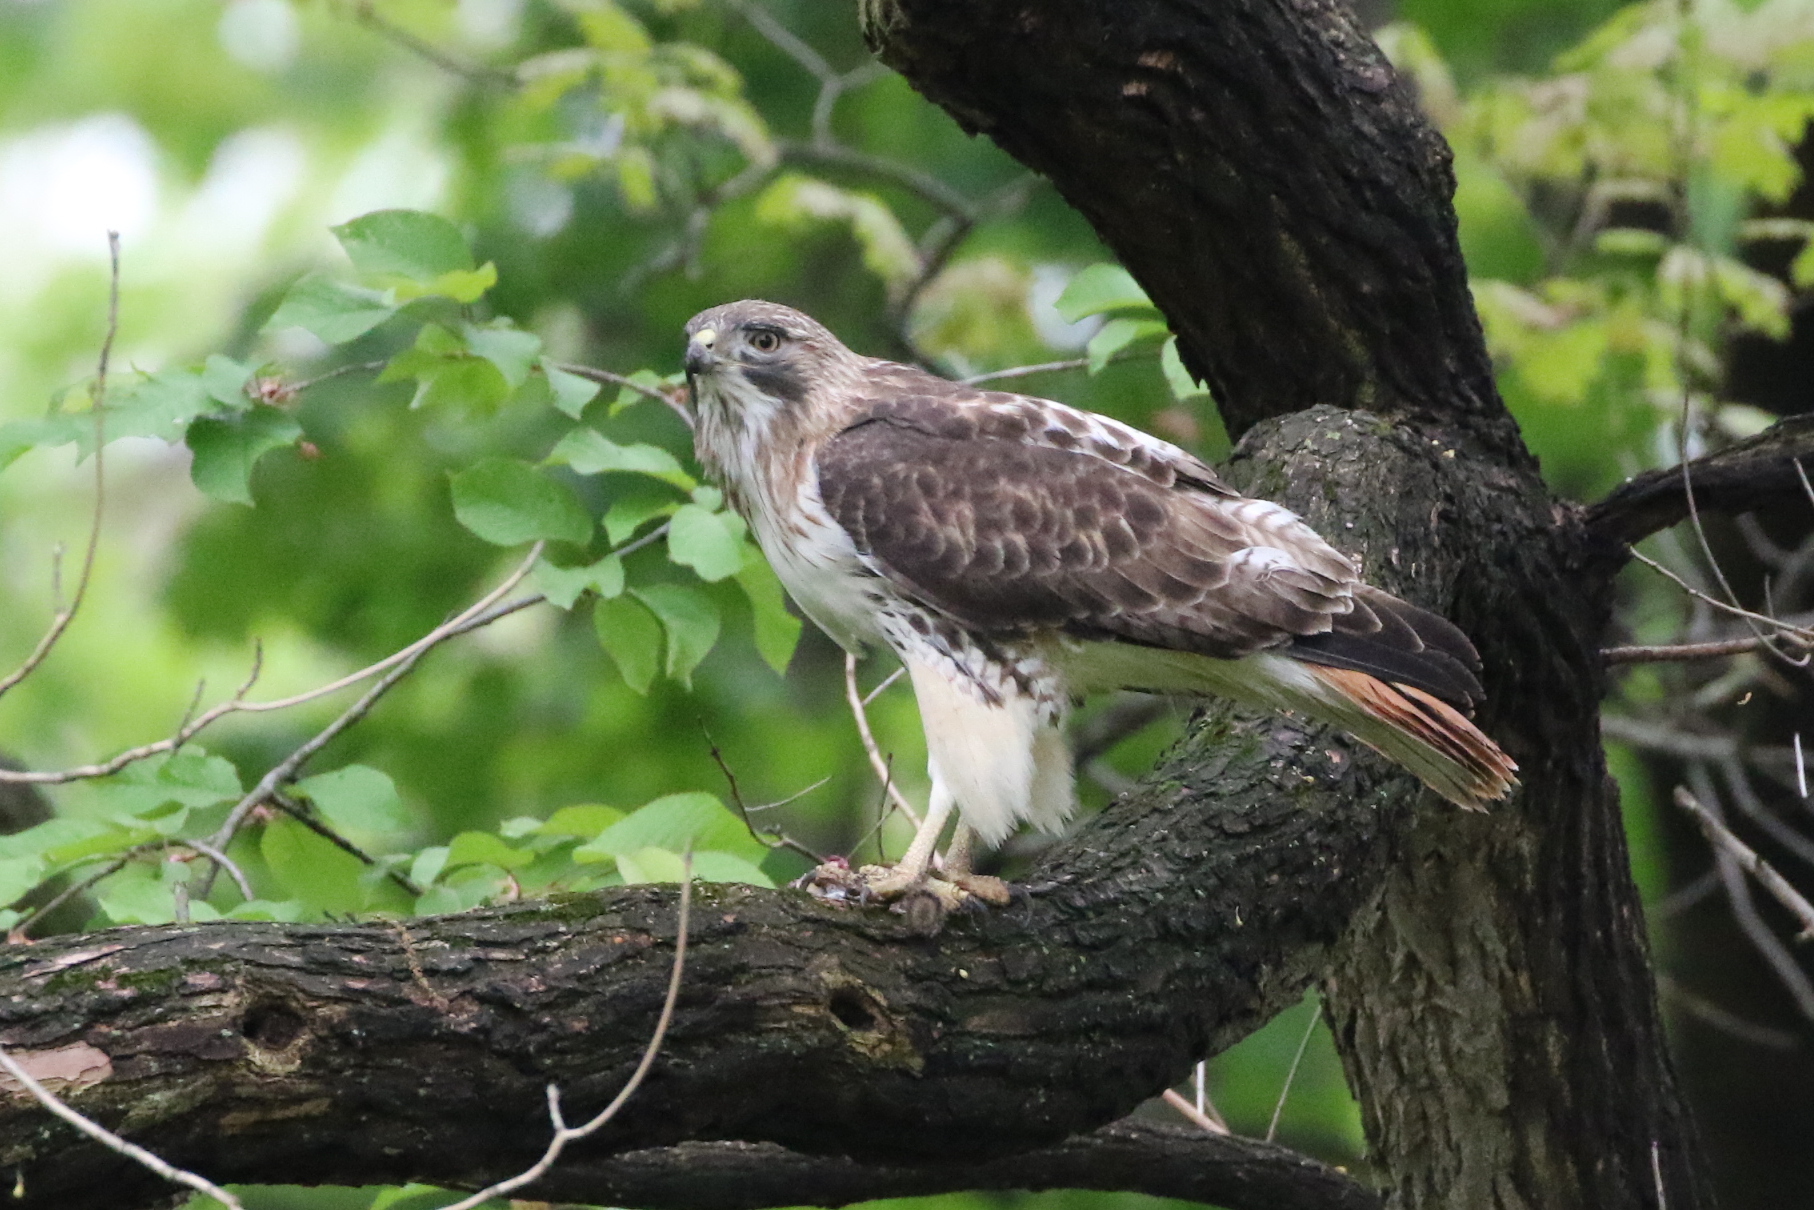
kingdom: Animalia
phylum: Chordata
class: Aves
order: Accipitriformes
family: Accipitridae
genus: Buteo
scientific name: Buteo jamaicensis
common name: Red-tailed hawk
